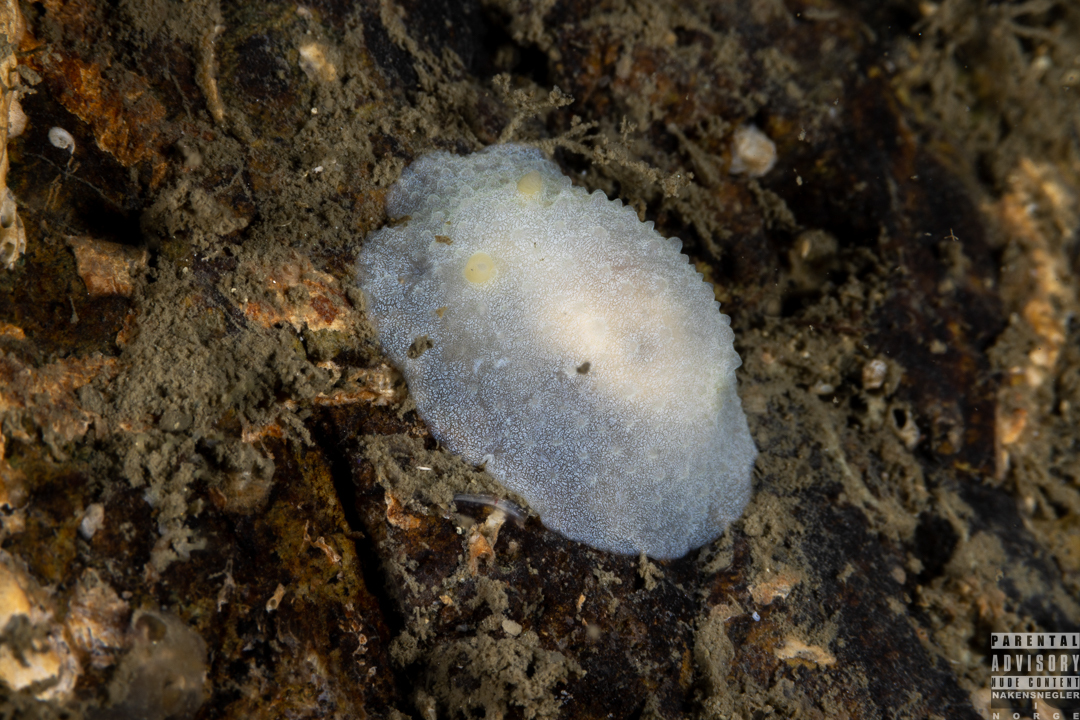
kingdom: Animalia
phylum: Mollusca
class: Gastropoda
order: Nudibranchia
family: Cadlinidae
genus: Aldisa
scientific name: Aldisa zetlandica
